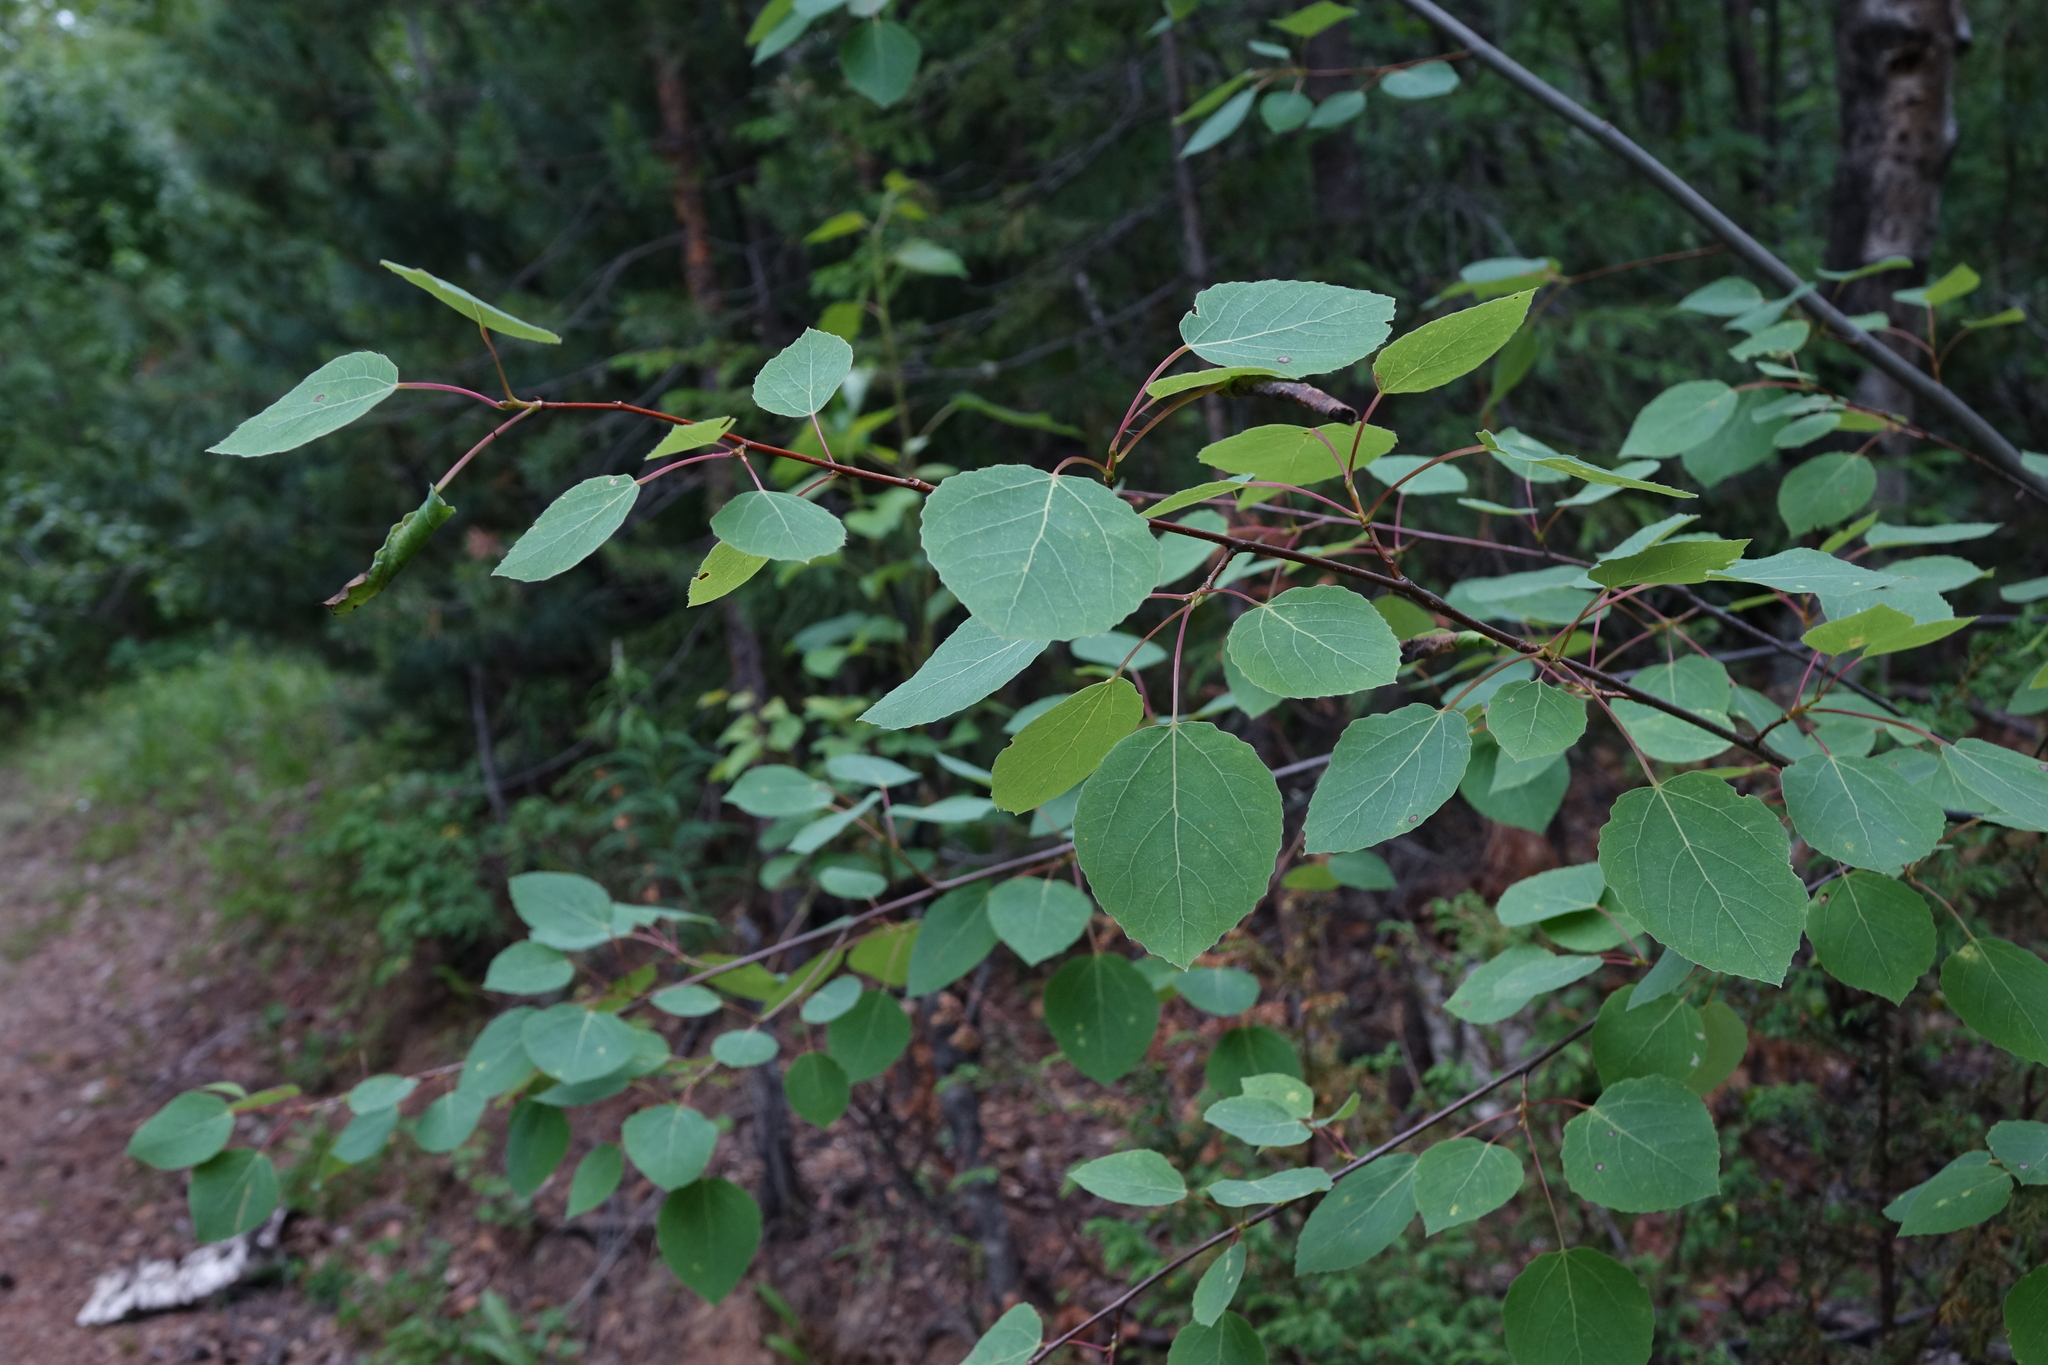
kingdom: Plantae
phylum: Tracheophyta
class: Magnoliopsida
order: Malpighiales
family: Salicaceae
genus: Populus
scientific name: Populus tremula
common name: European aspen
